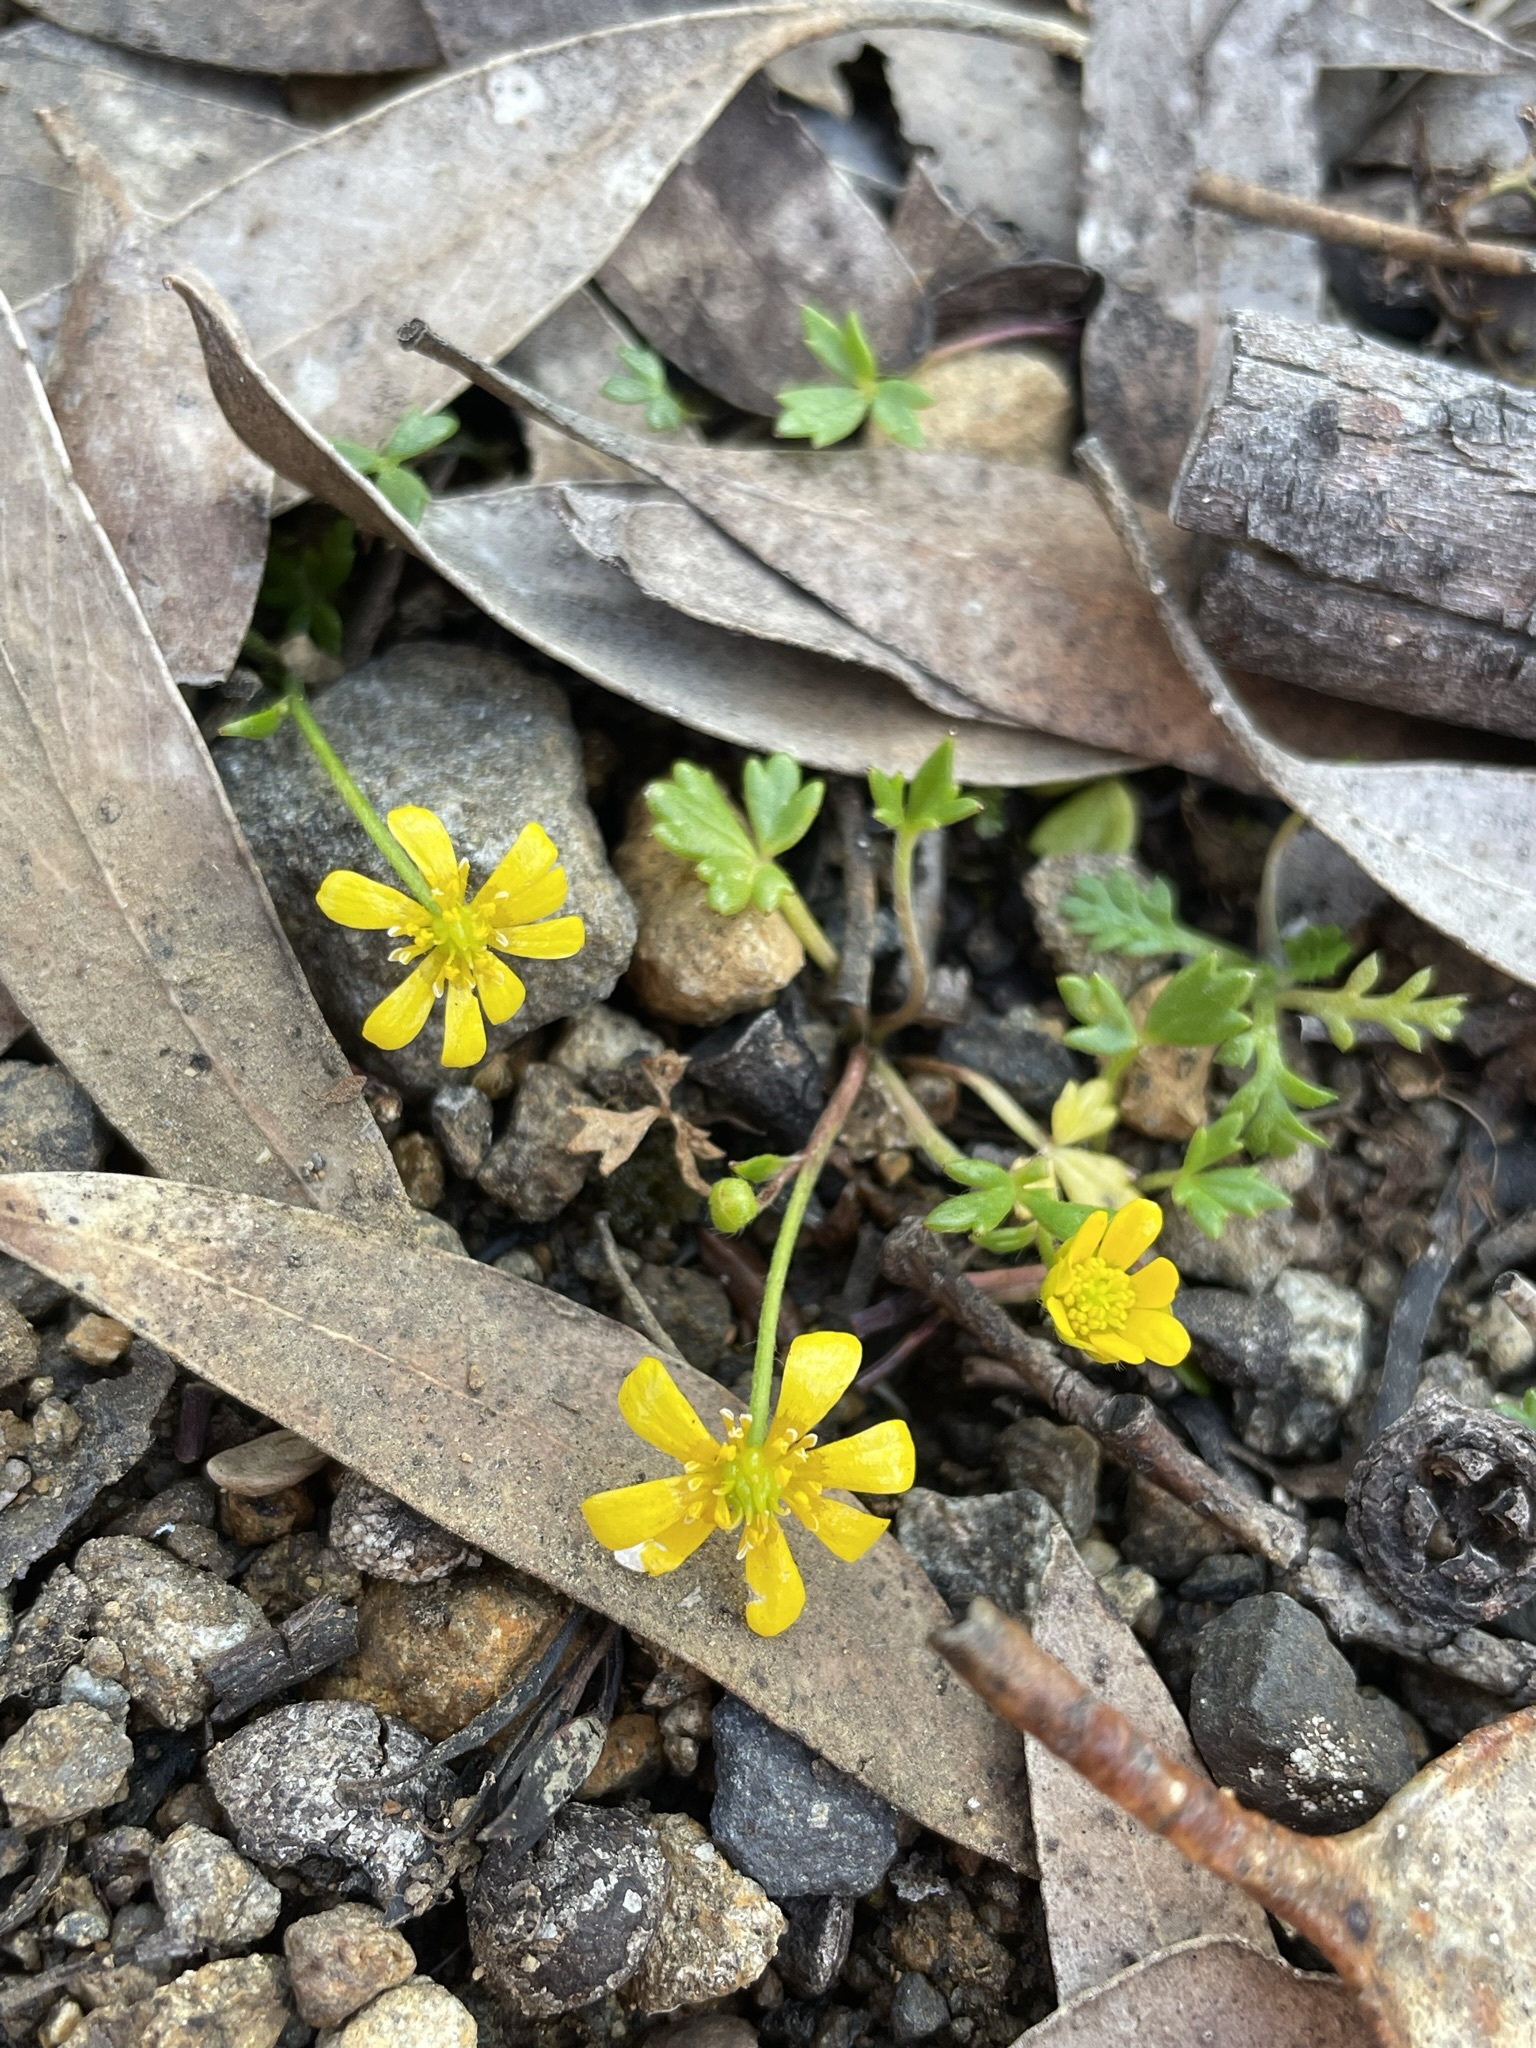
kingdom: Plantae
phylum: Tracheophyta
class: Magnoliopsida
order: Ranunculales
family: Ranunculaceae
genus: Ranunculus
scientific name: Ranunculus collinus
